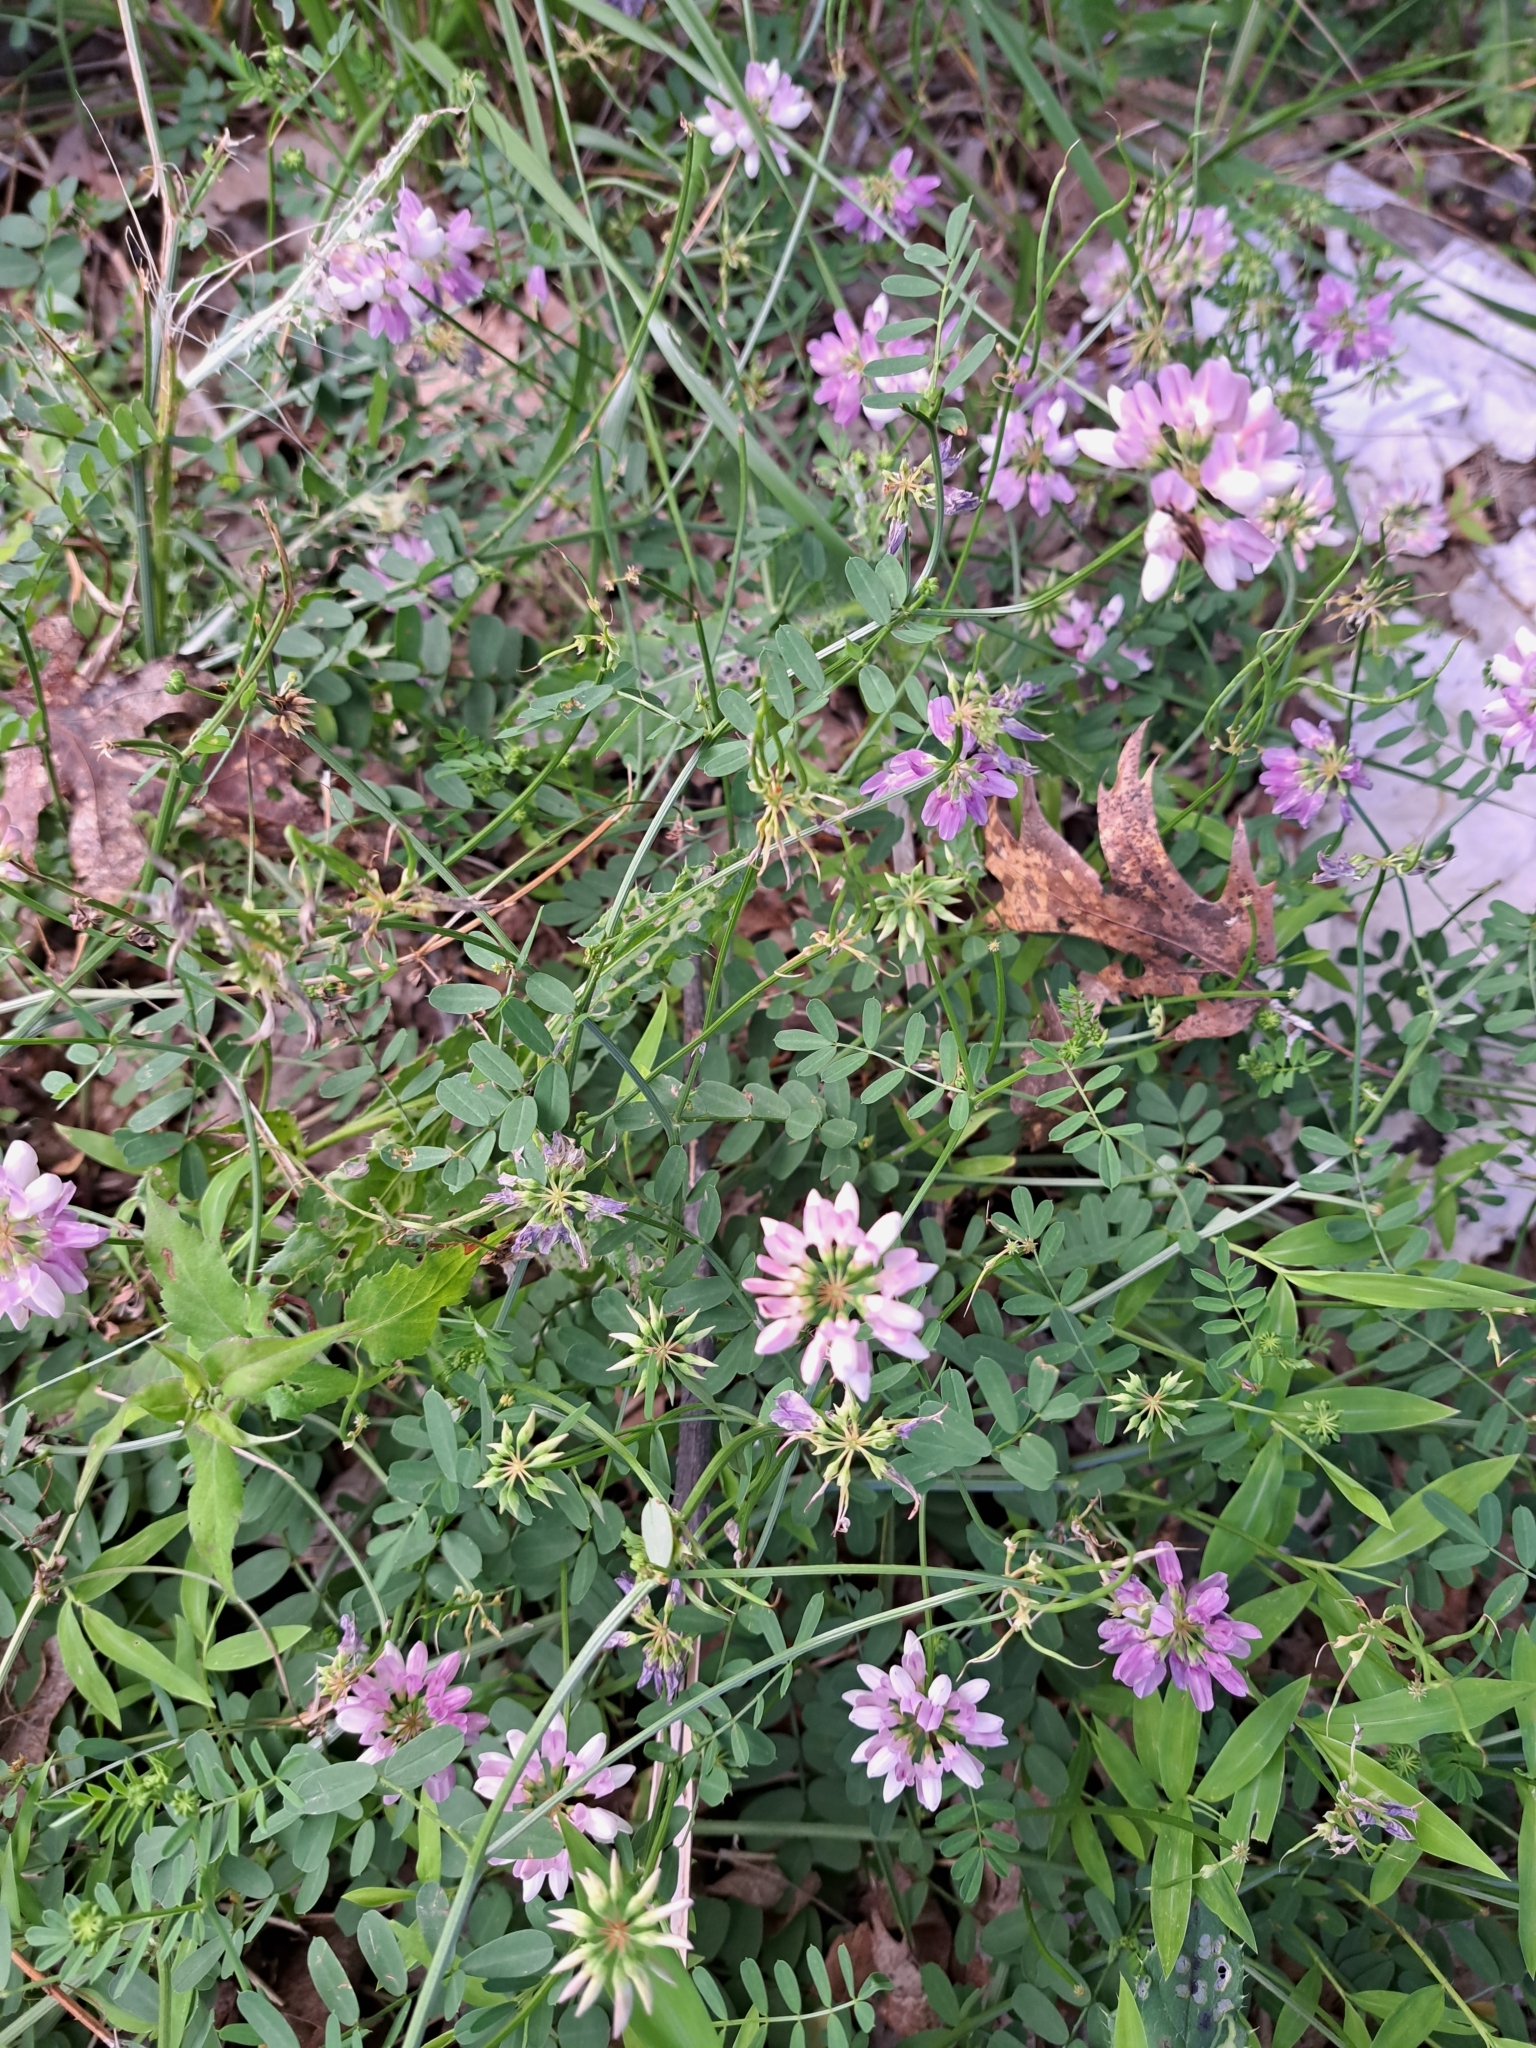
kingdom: Plantae
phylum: Tracheophyta
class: Magnoliopsida
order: Fabales
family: Fabaceae
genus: Coronilla
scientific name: Coronilla varia
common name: Crownvetch
